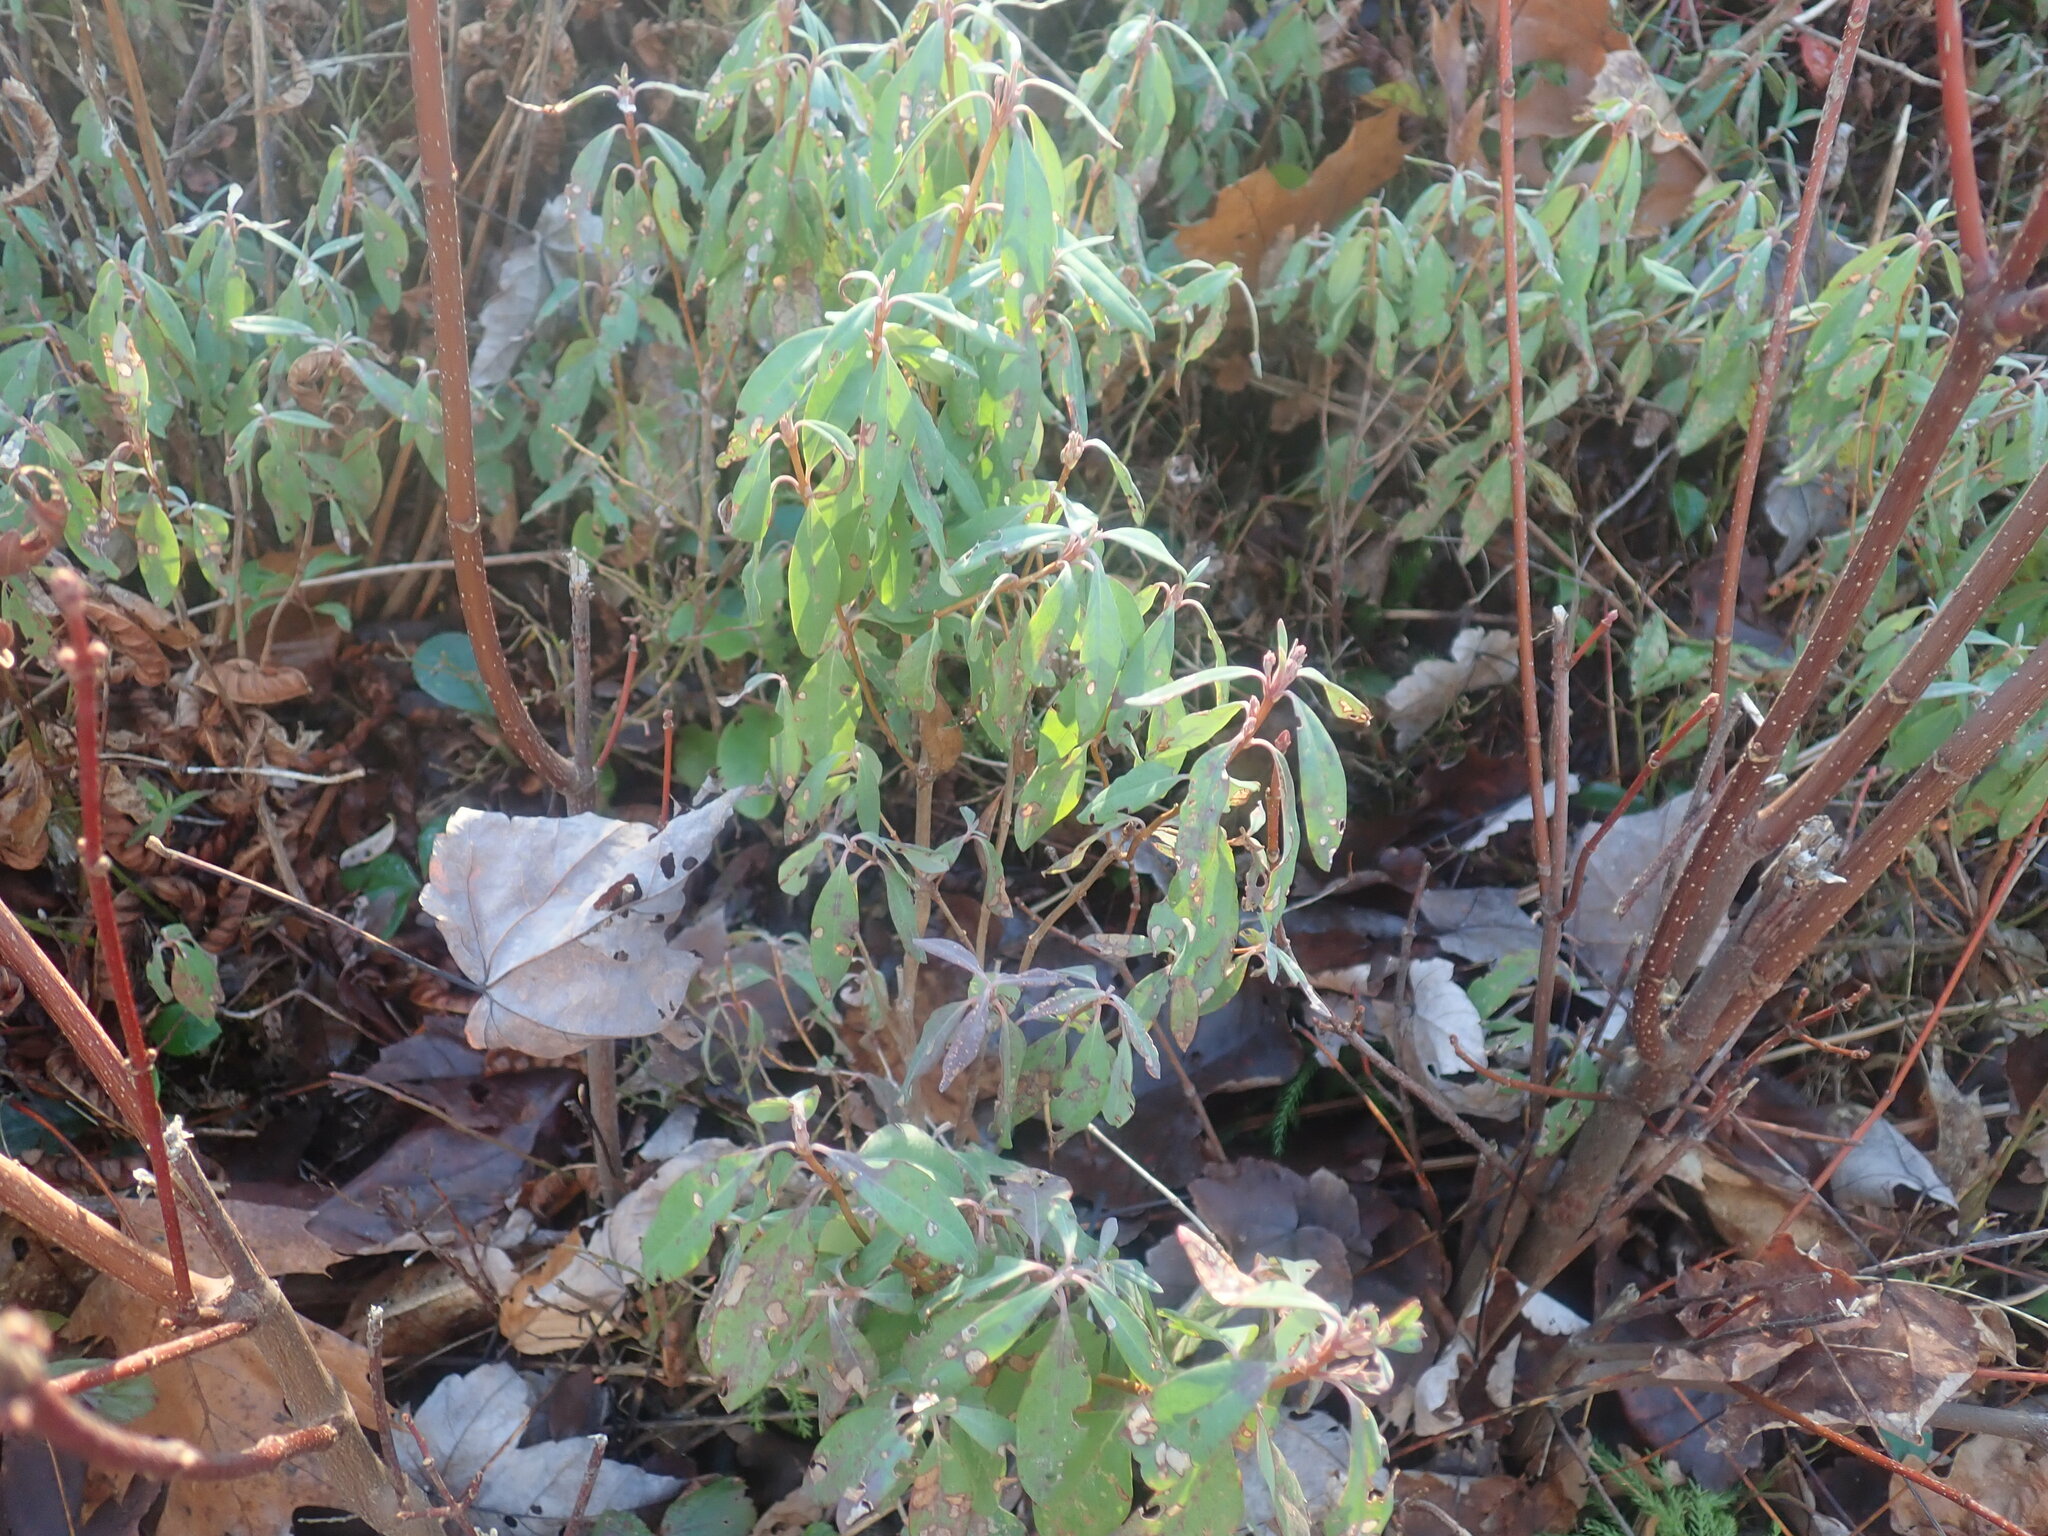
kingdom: Plantae
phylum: Tracheophyta
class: Magnoliopsida
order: Ericales
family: Ericaceae
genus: Kalmia
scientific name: Kalmia angustifolia
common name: Sheep-laurel
